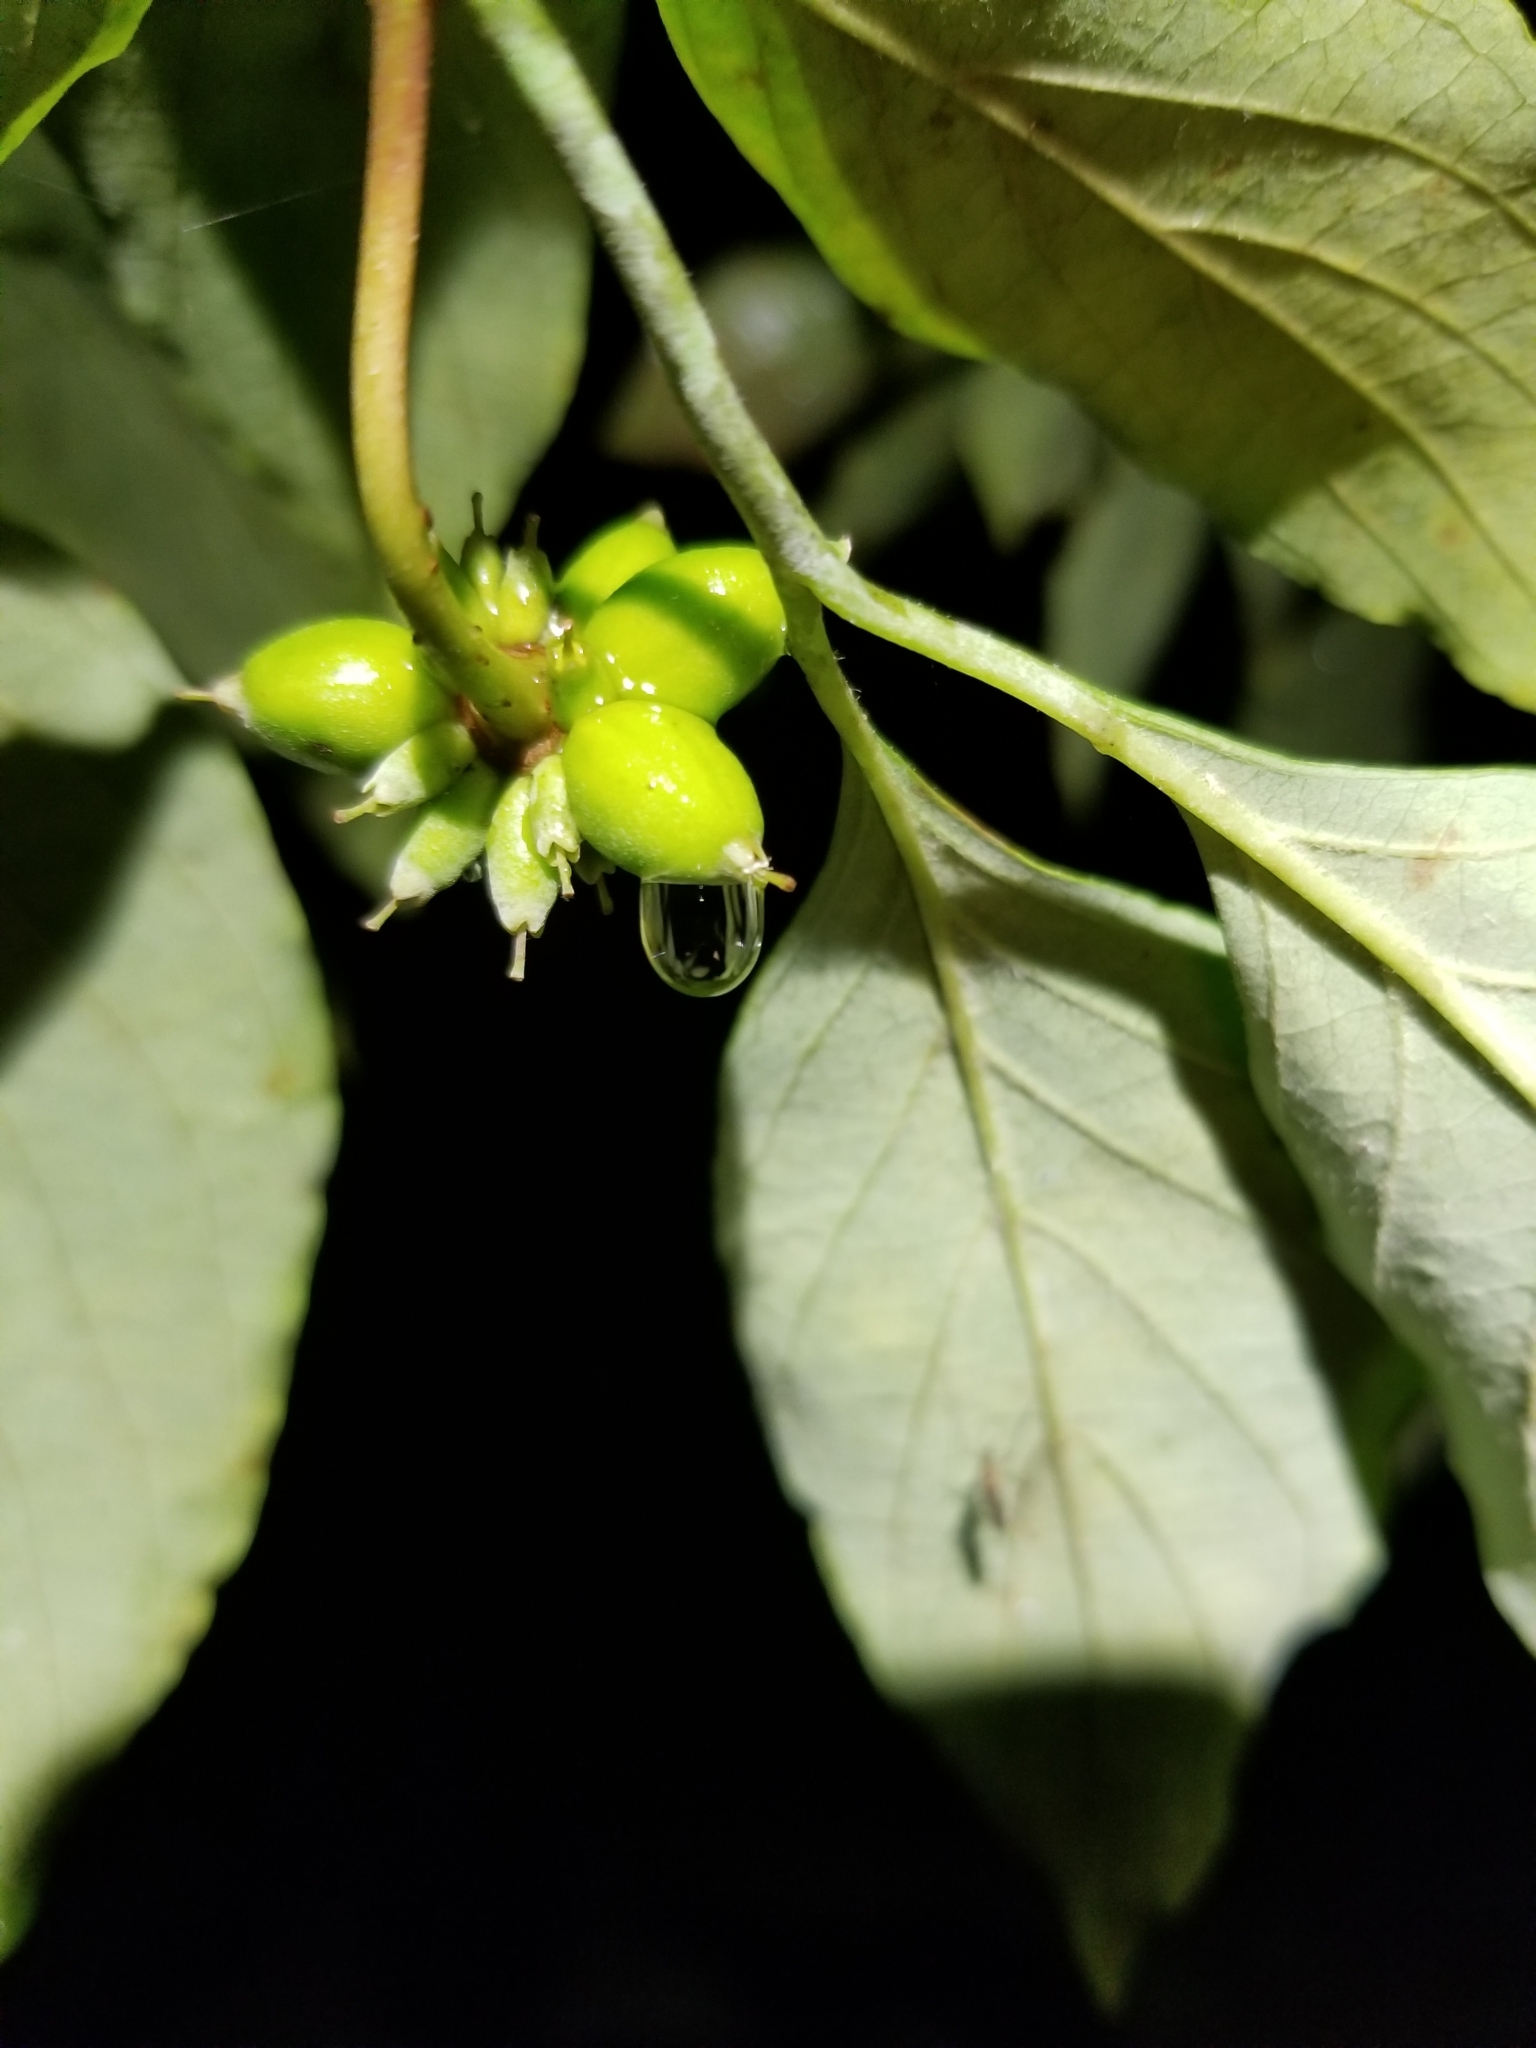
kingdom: Plantae
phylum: Tracheophyta
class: Magnoliopsida
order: Cornales
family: Cornaceae
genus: Cornus
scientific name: Cornus florida
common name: Flowering dogwood
